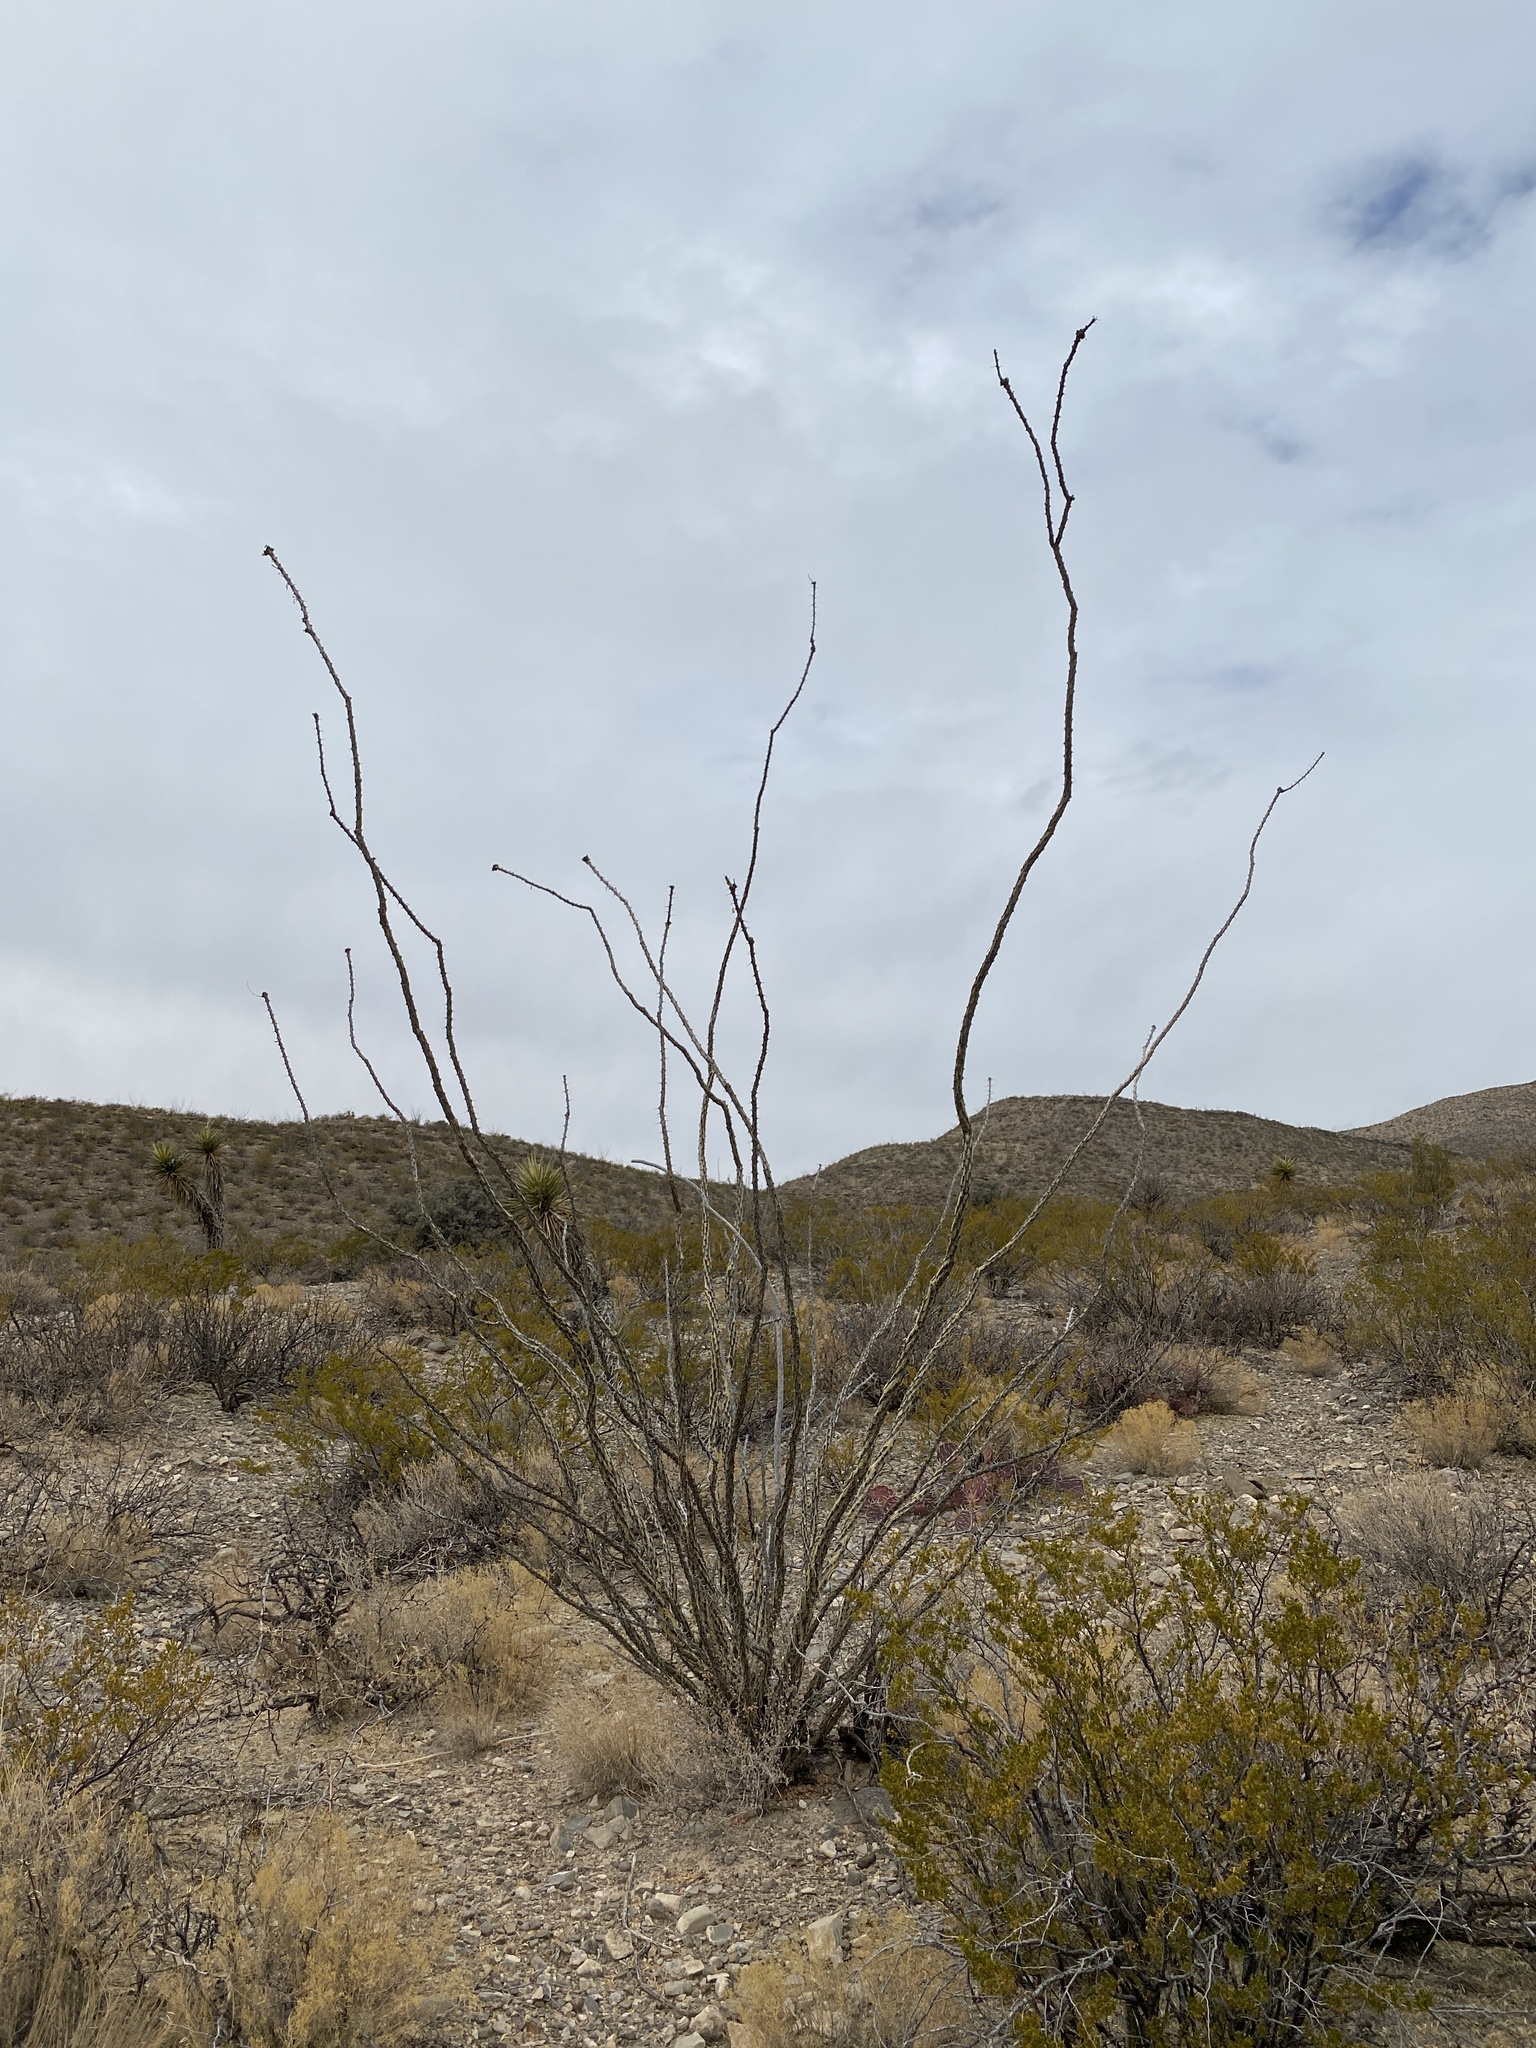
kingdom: Plantae
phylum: Tracheophyta
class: Magnoliopsida
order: Ericales
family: Fouquieriaceae
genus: Fouquieria
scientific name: Fouquieria splendens
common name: Vine-cactus
